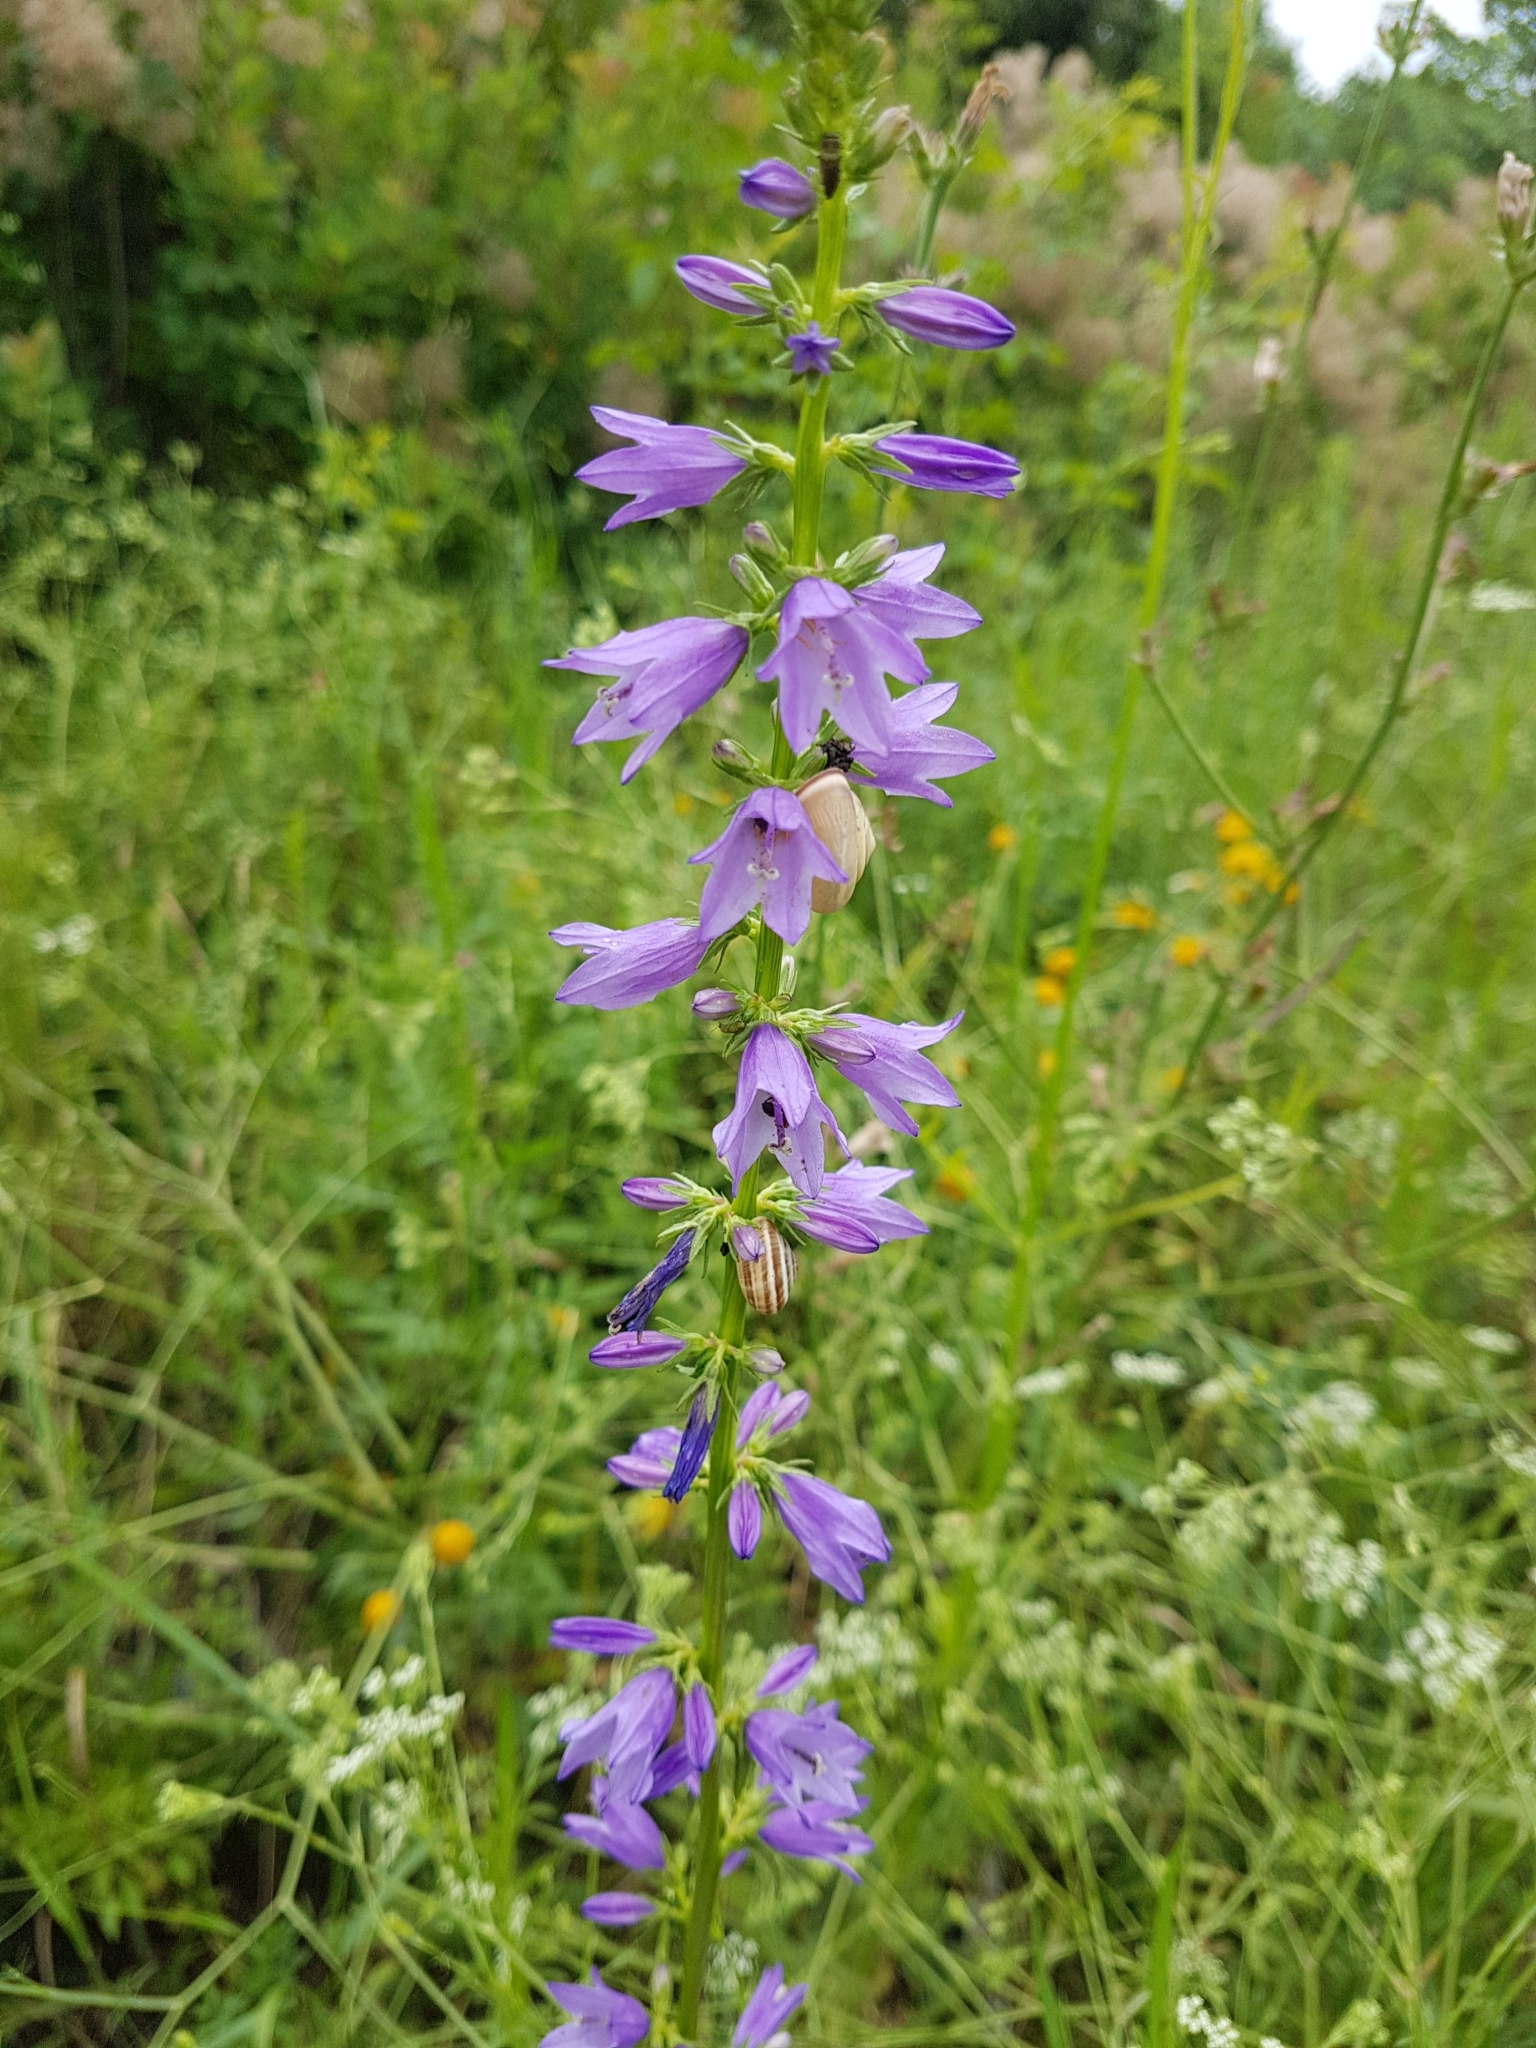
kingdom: Plantae
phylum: Tracheophyta
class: Magnoliopsida
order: Asterales
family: Campanulaceae
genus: Campanula
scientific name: Campanula rapunculoides
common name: Creeping bellflower
